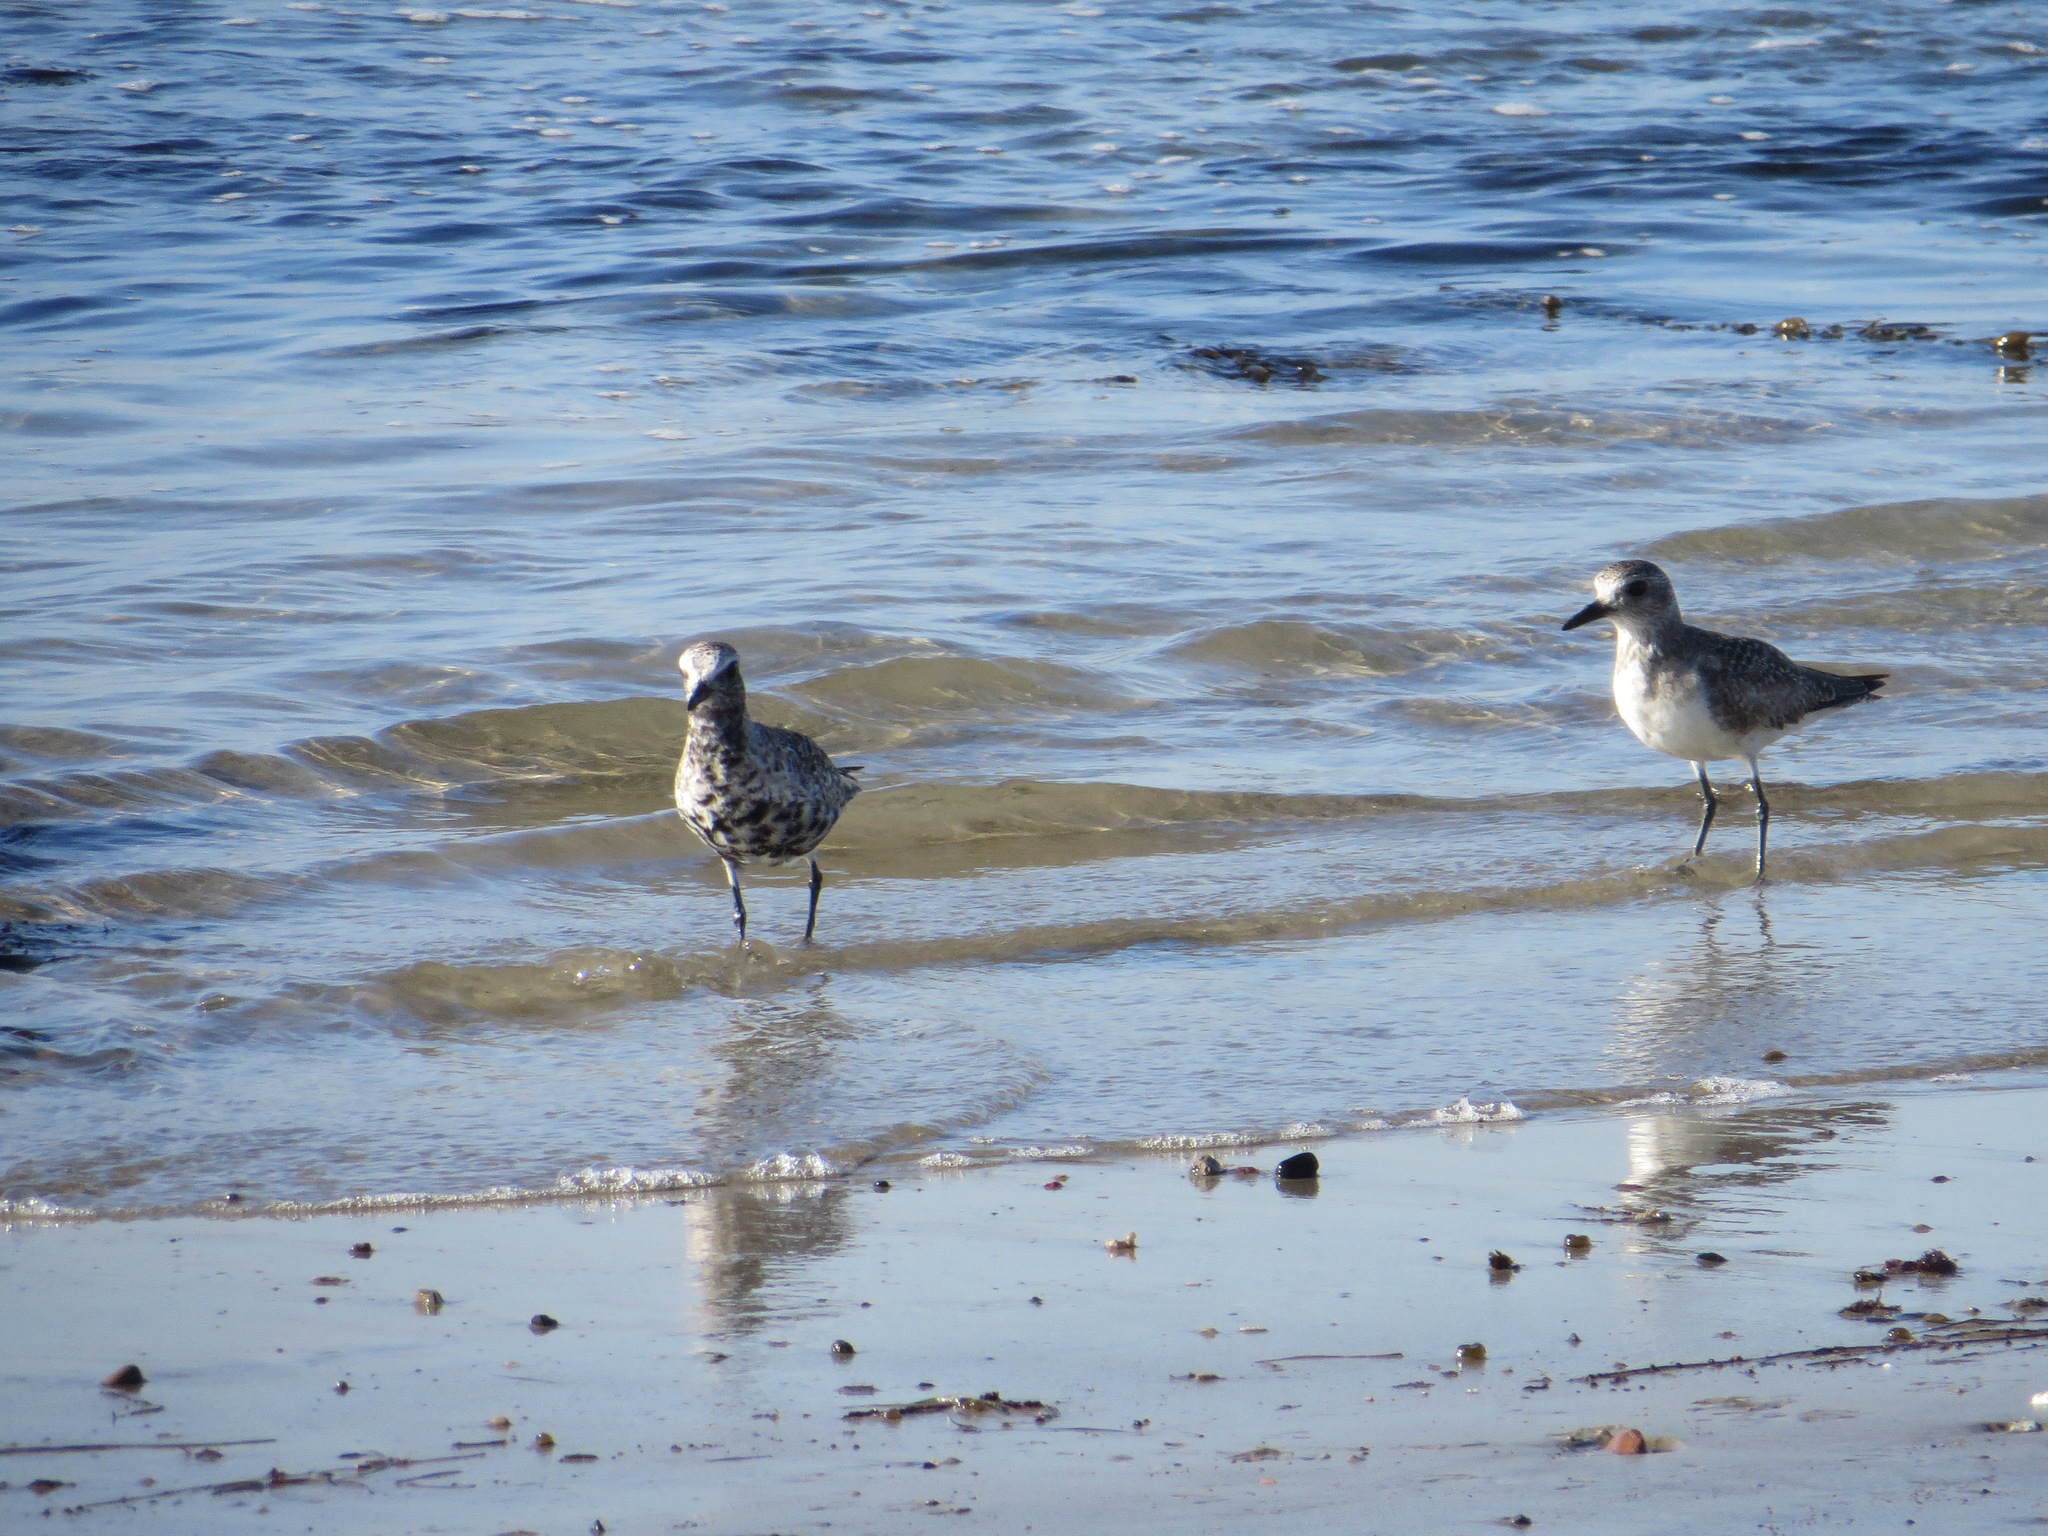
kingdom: Animalia
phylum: Chordata
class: Aves
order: Charadriiformes
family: Charadriidae
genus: Pluvialis
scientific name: Pluvialis squatarola
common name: Grey plover
